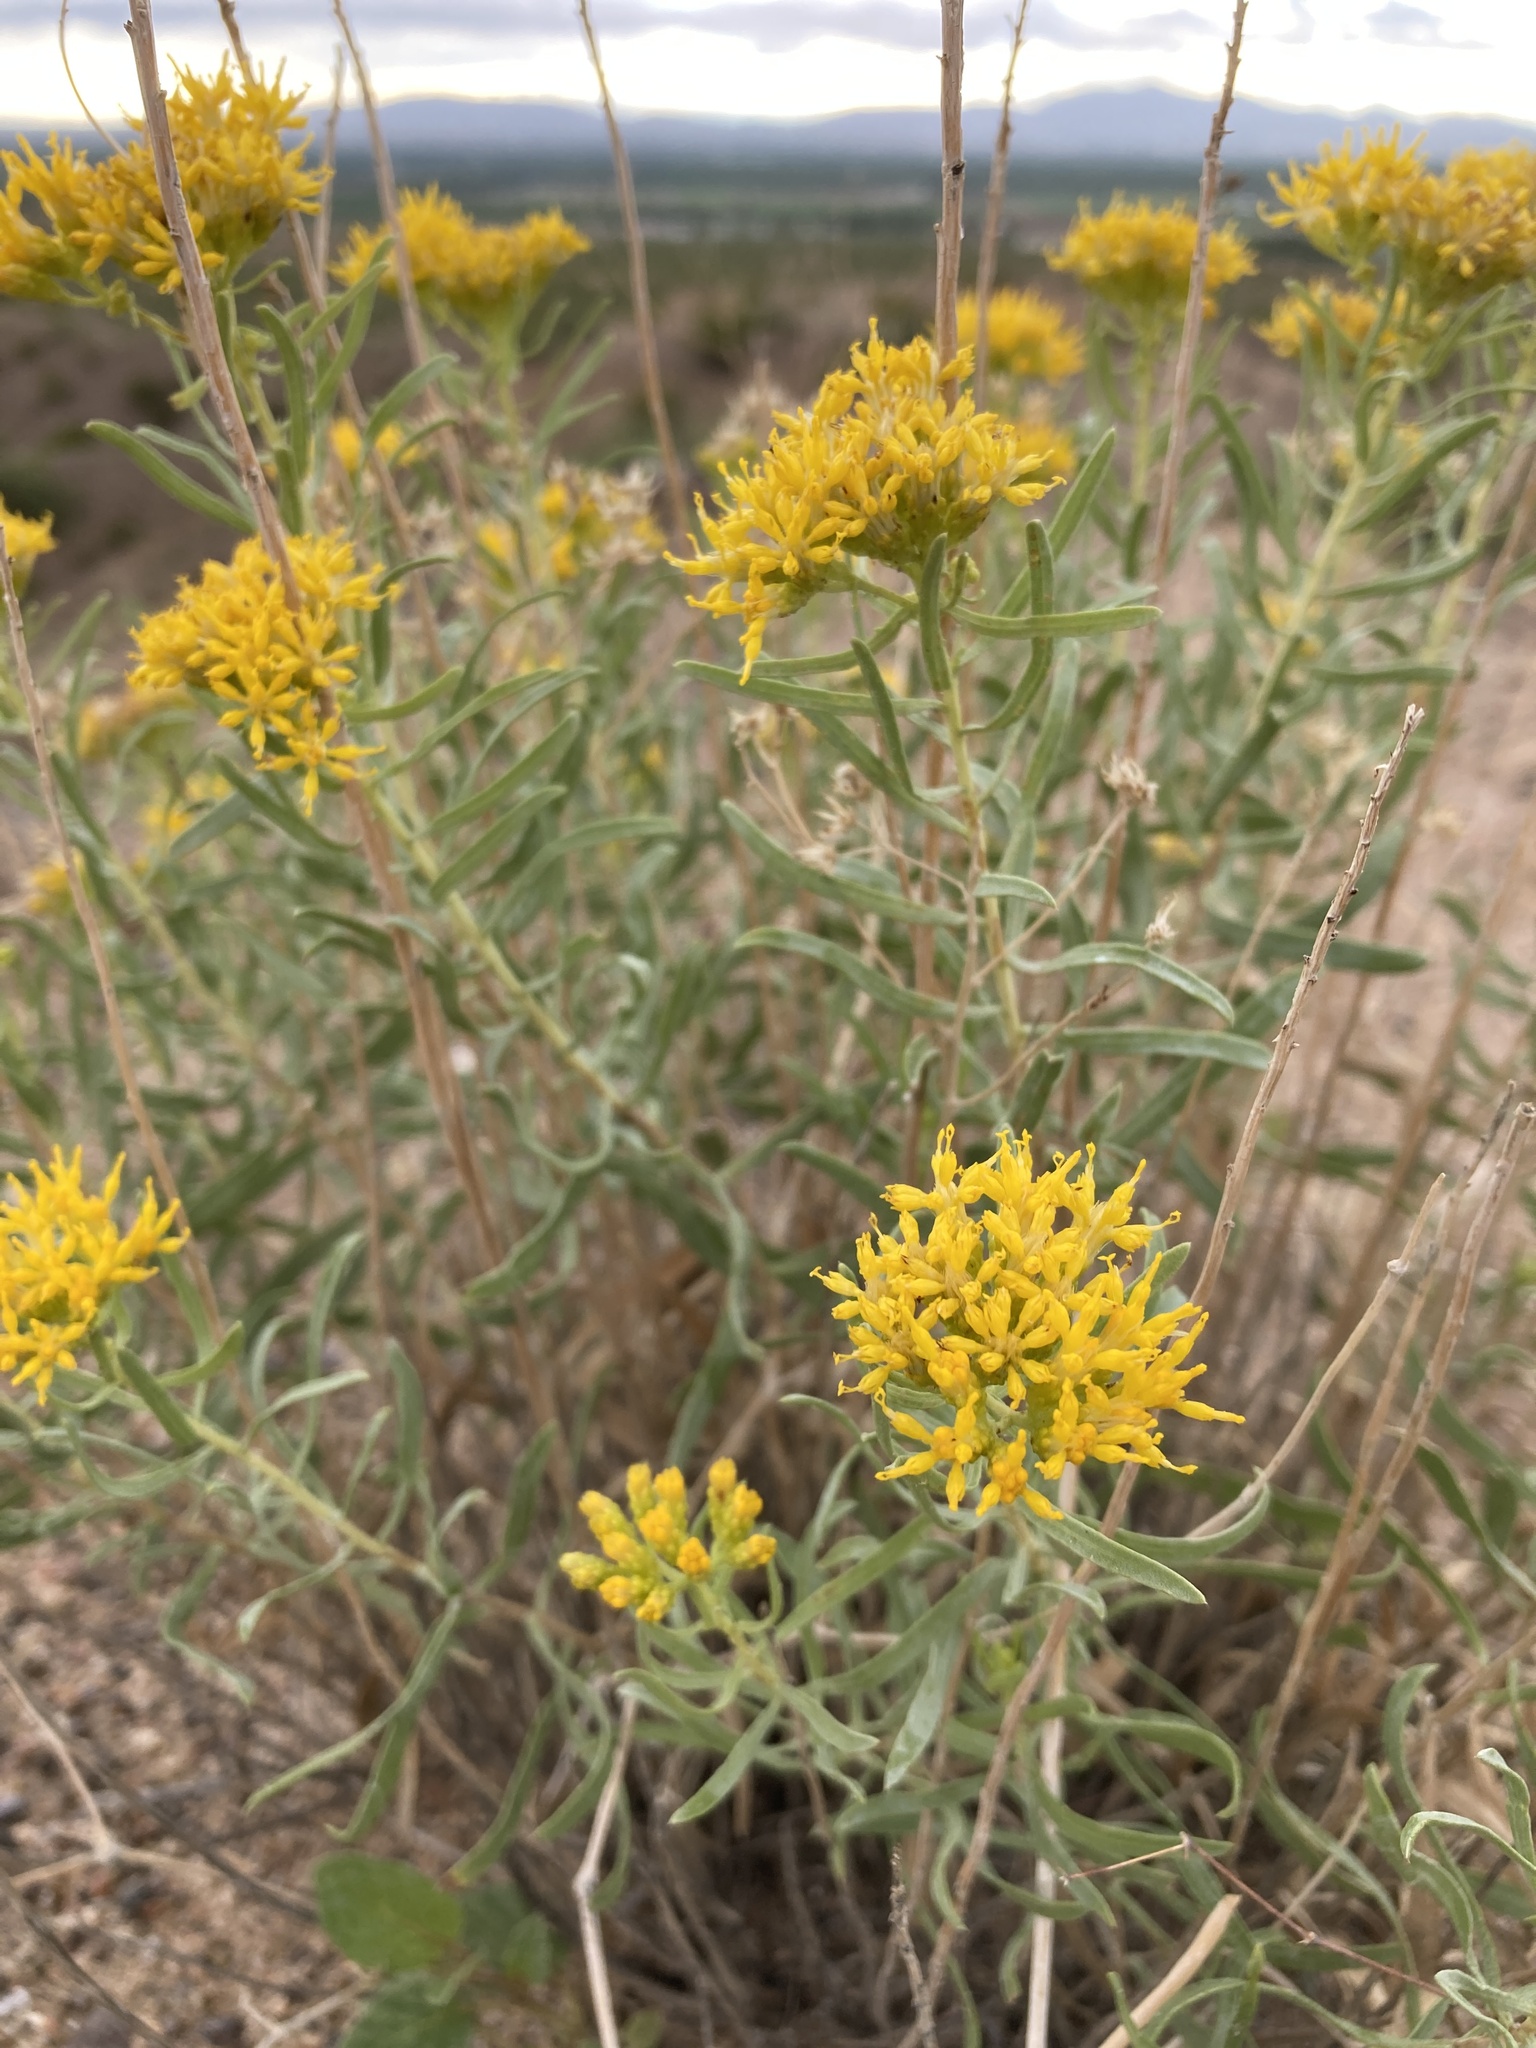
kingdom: Plantae
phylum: Tracheophyta
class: Magnoliopsida
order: Asterales
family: Asteraceae
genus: Isocoma
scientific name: Isocoma pluriflora
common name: Southern jimmyweed
